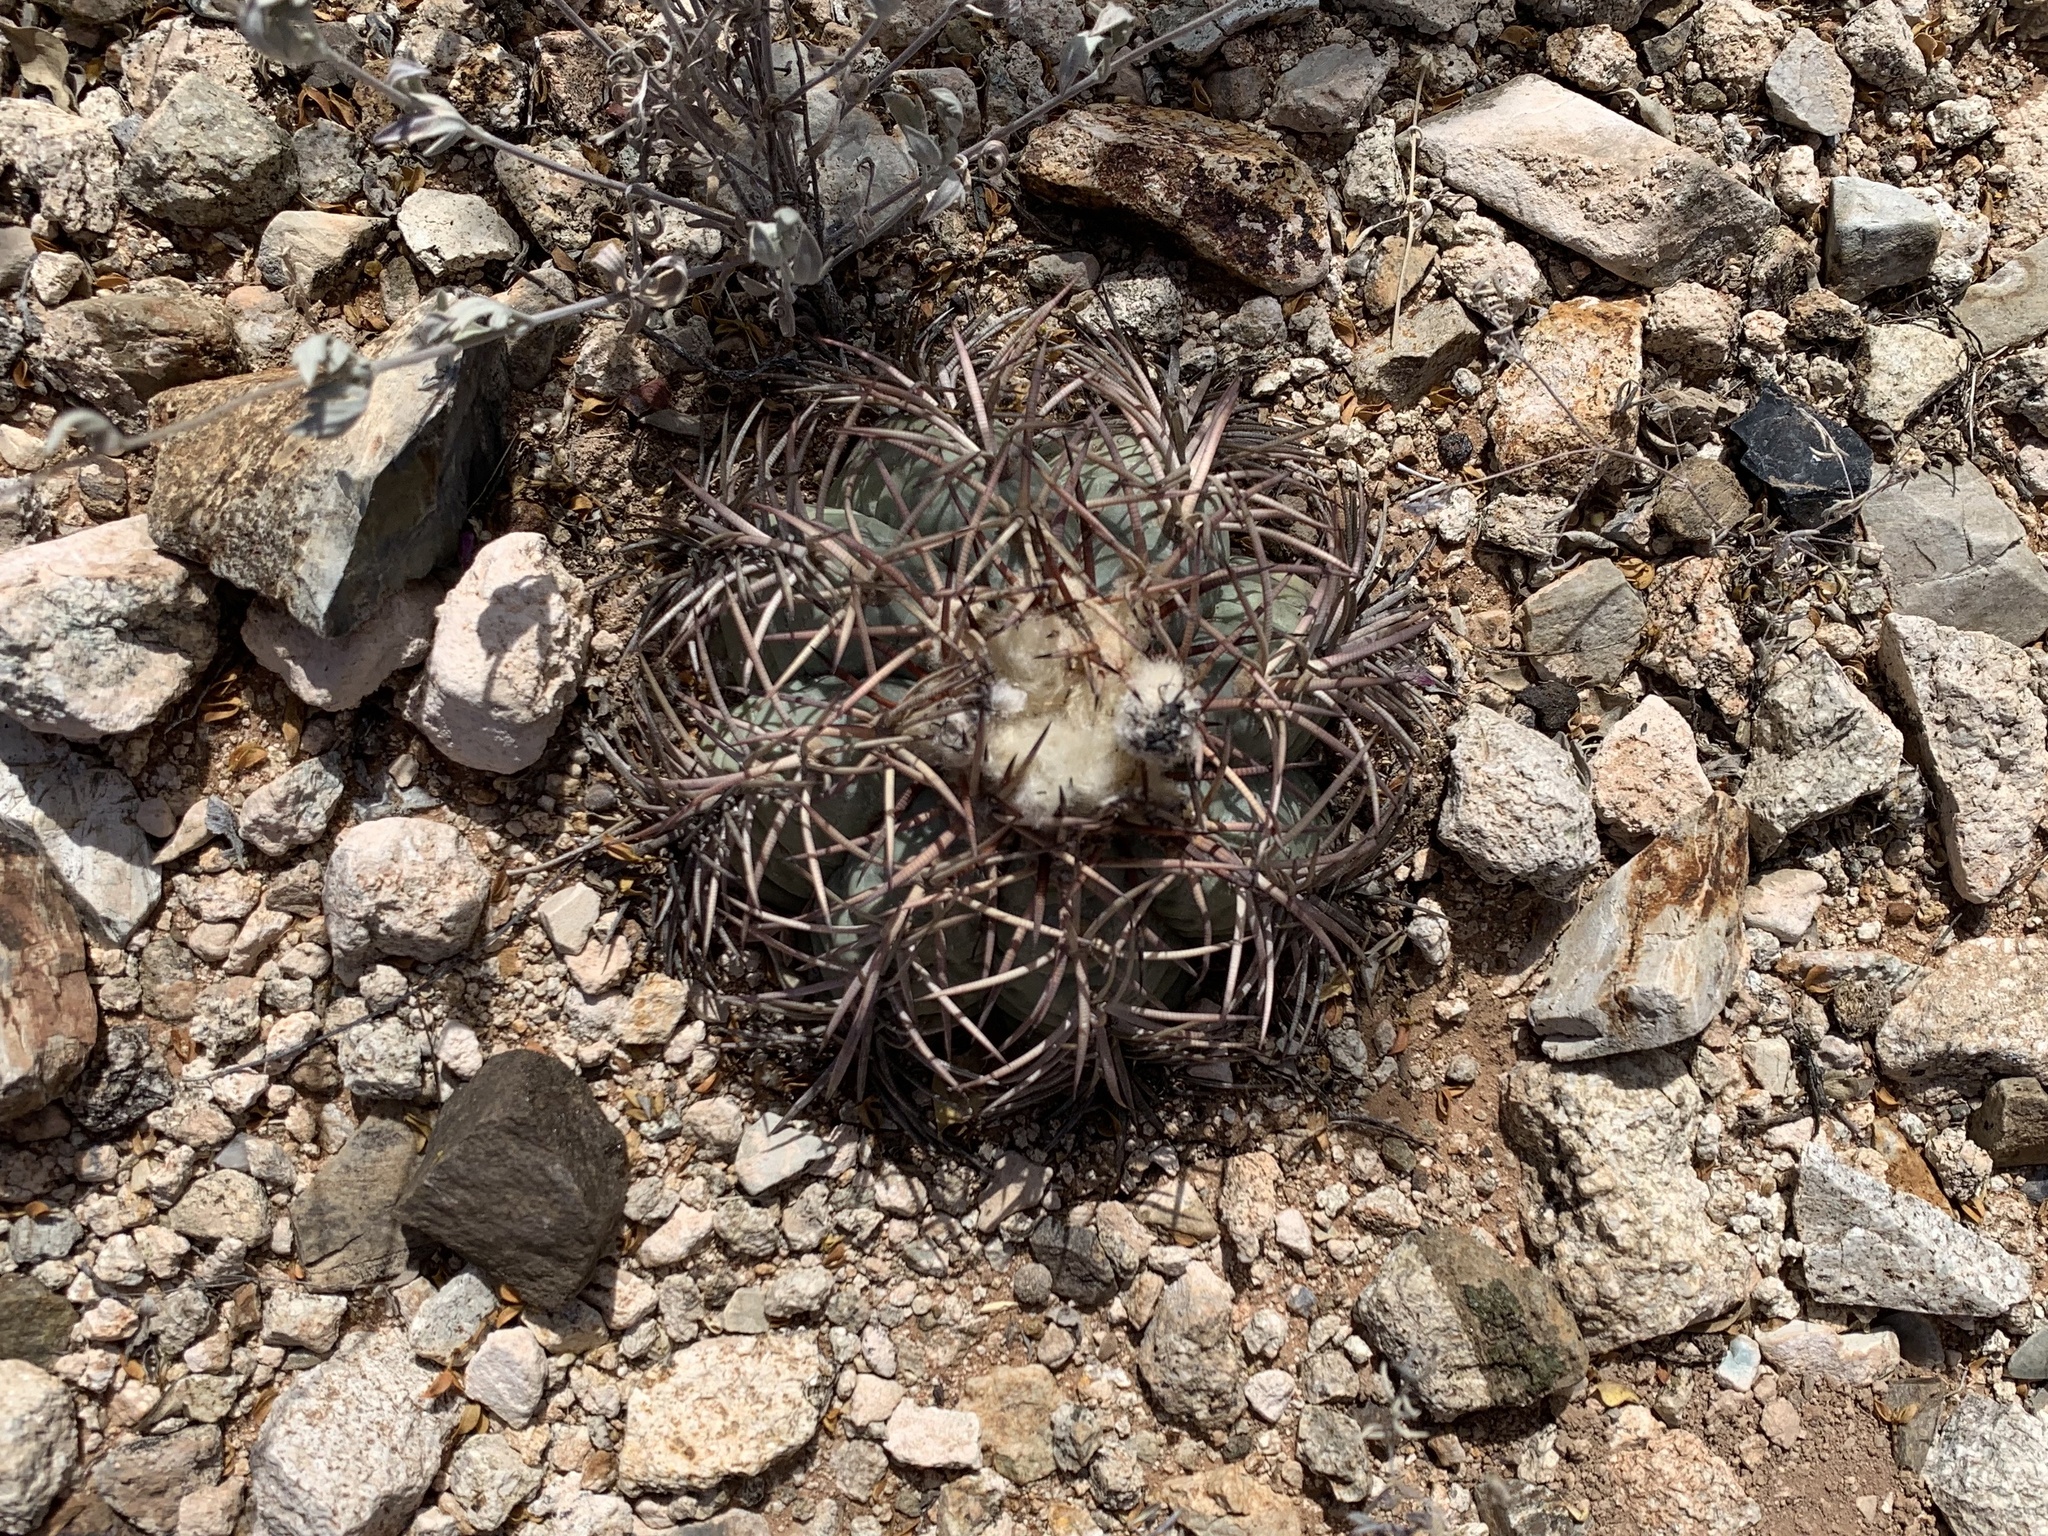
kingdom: Plantae
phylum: Tracheophyta
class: Magnoliopsida
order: Caryophyllales
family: Cactaceae
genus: Echinocactus
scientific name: Echinocactus horizonthalonius
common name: Devilshead
